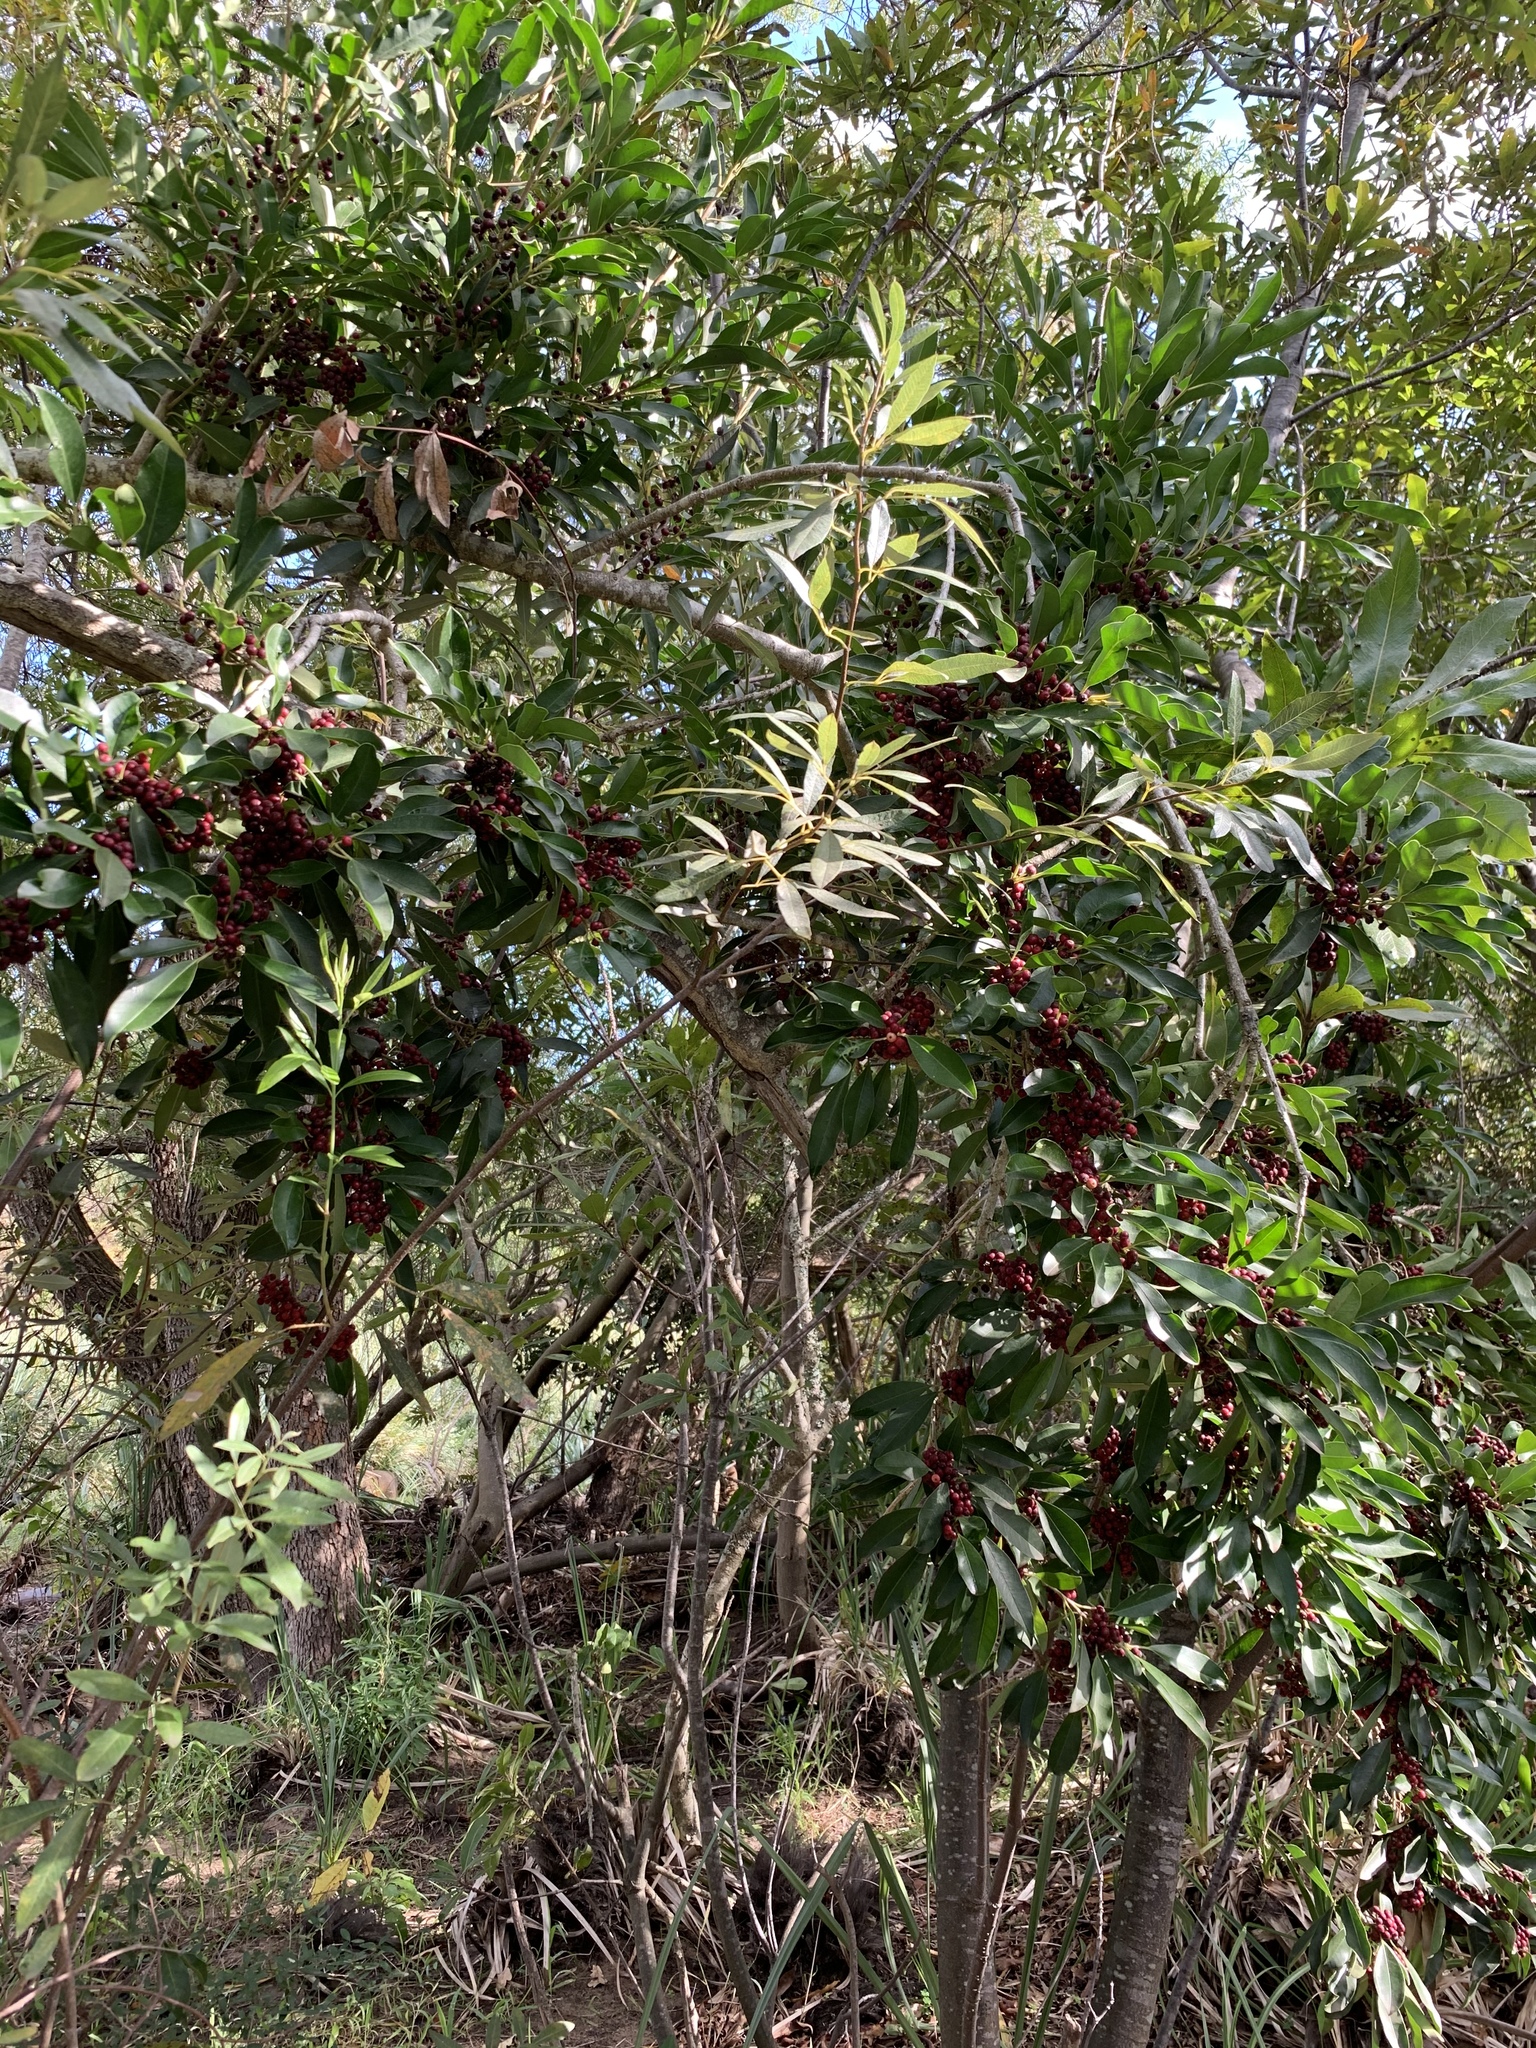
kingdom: Plantae
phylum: Tracheophyta
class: Magnoliopsida
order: Aquifoliales
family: Aquifoliaceae
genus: Ilex
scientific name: Ilex mitis
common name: African holly
